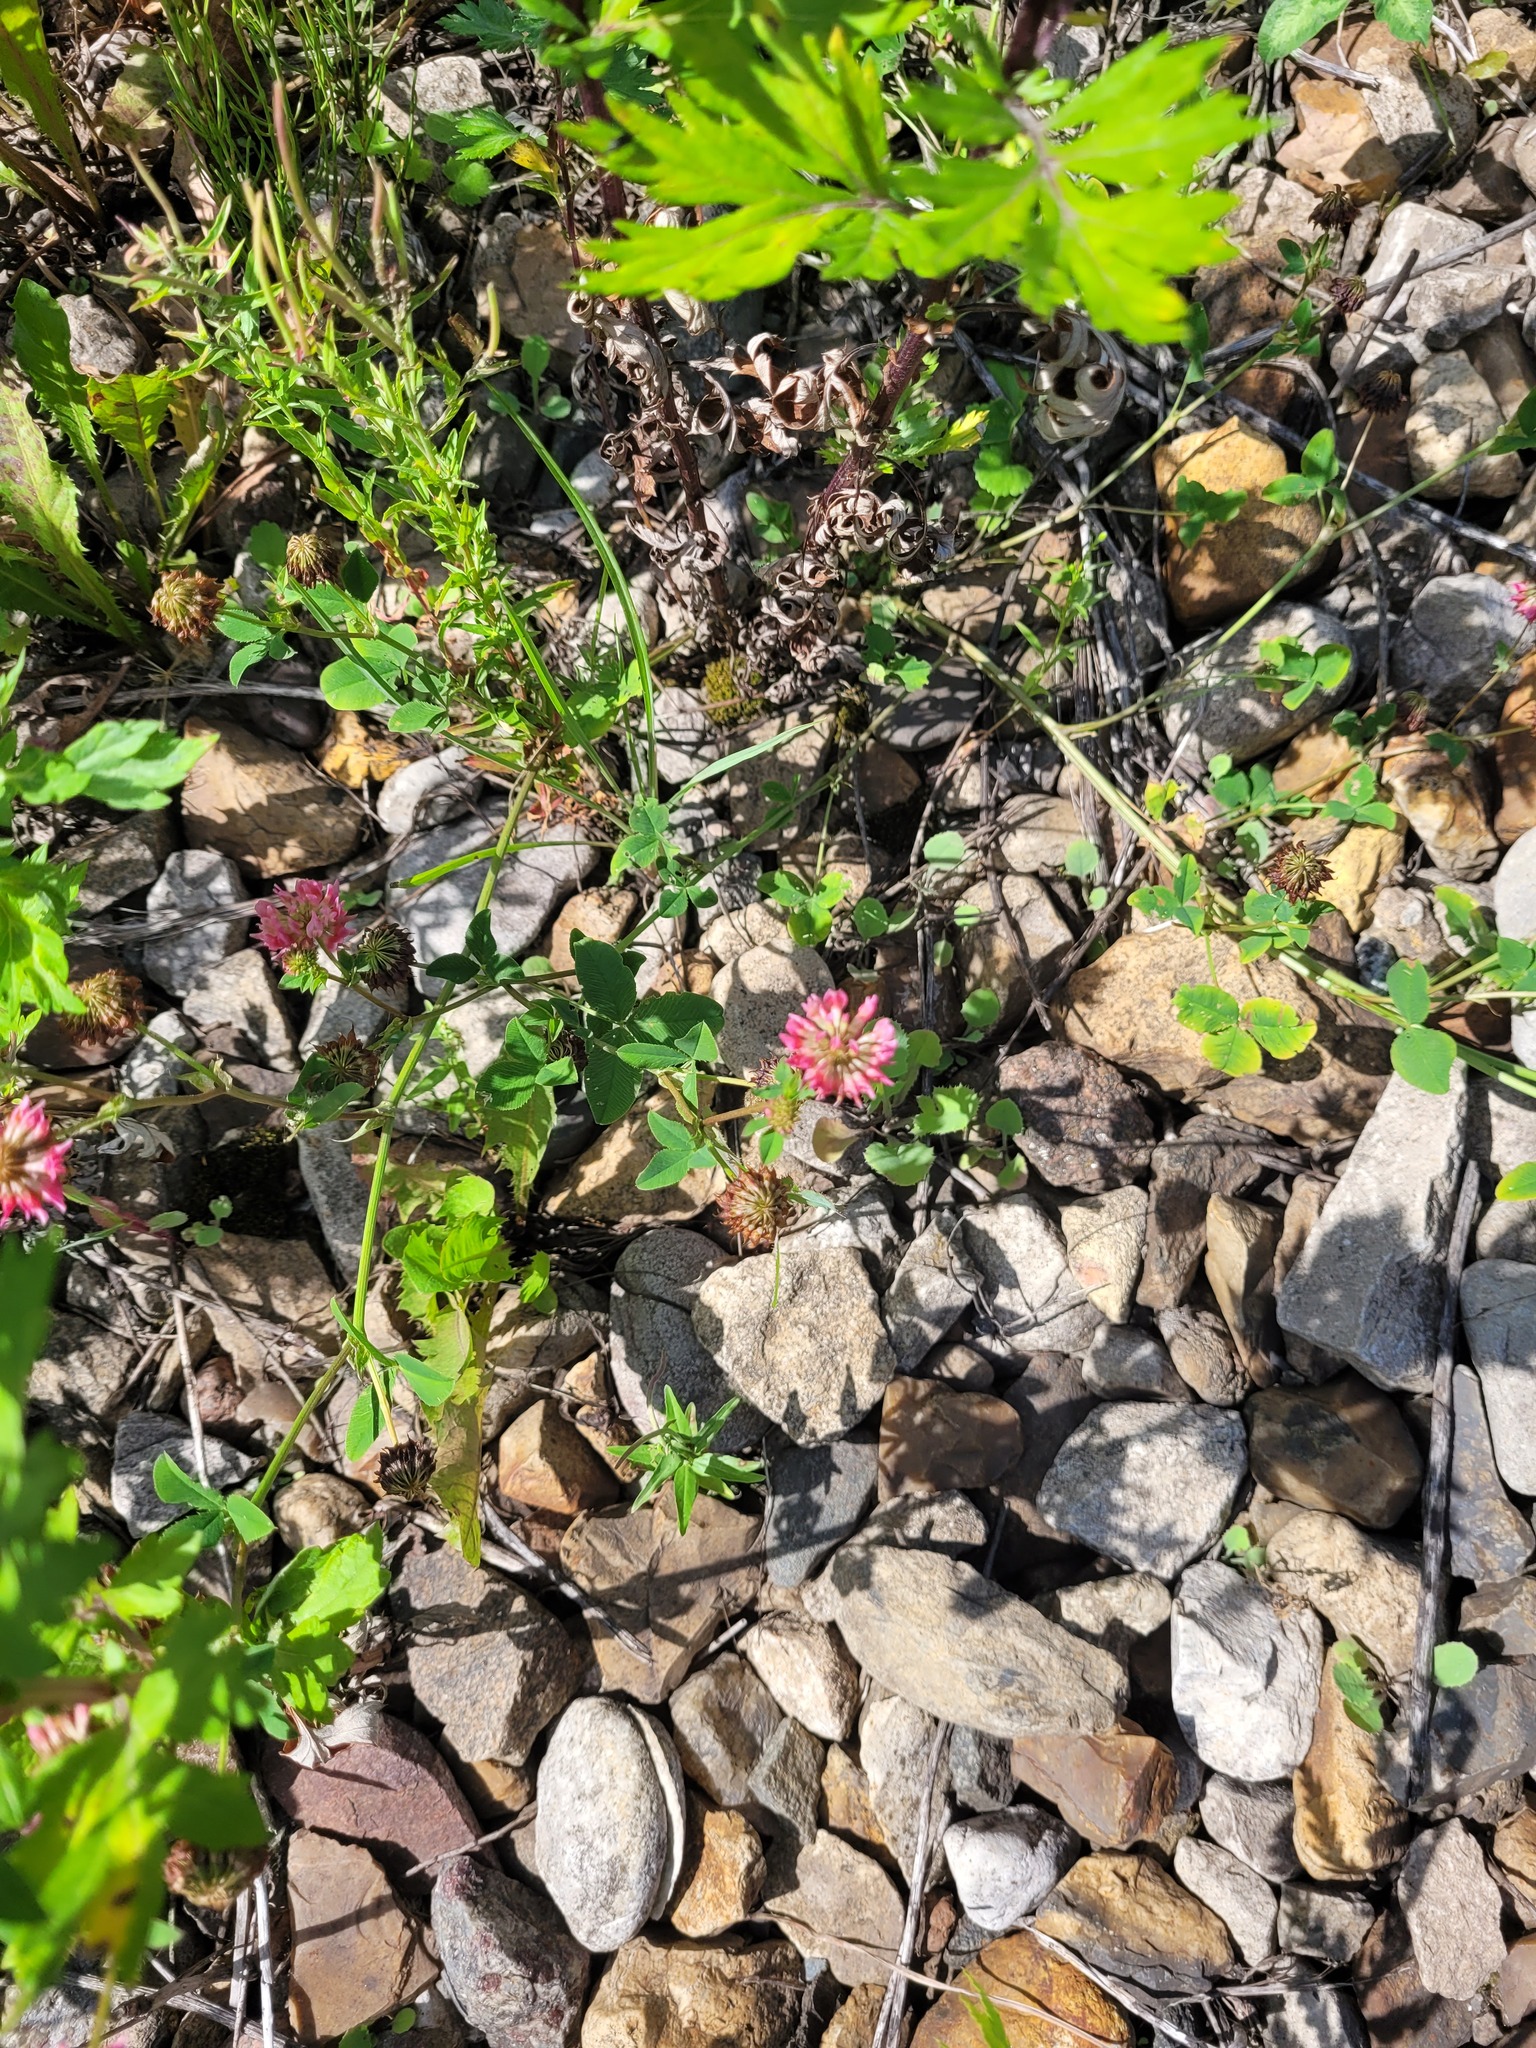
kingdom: Plantae
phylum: Tracheophyta
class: Magnoliopsida
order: Fabales
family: Fabaceae
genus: Trifolium
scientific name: Trifolium hybridum
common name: Alsike clover
